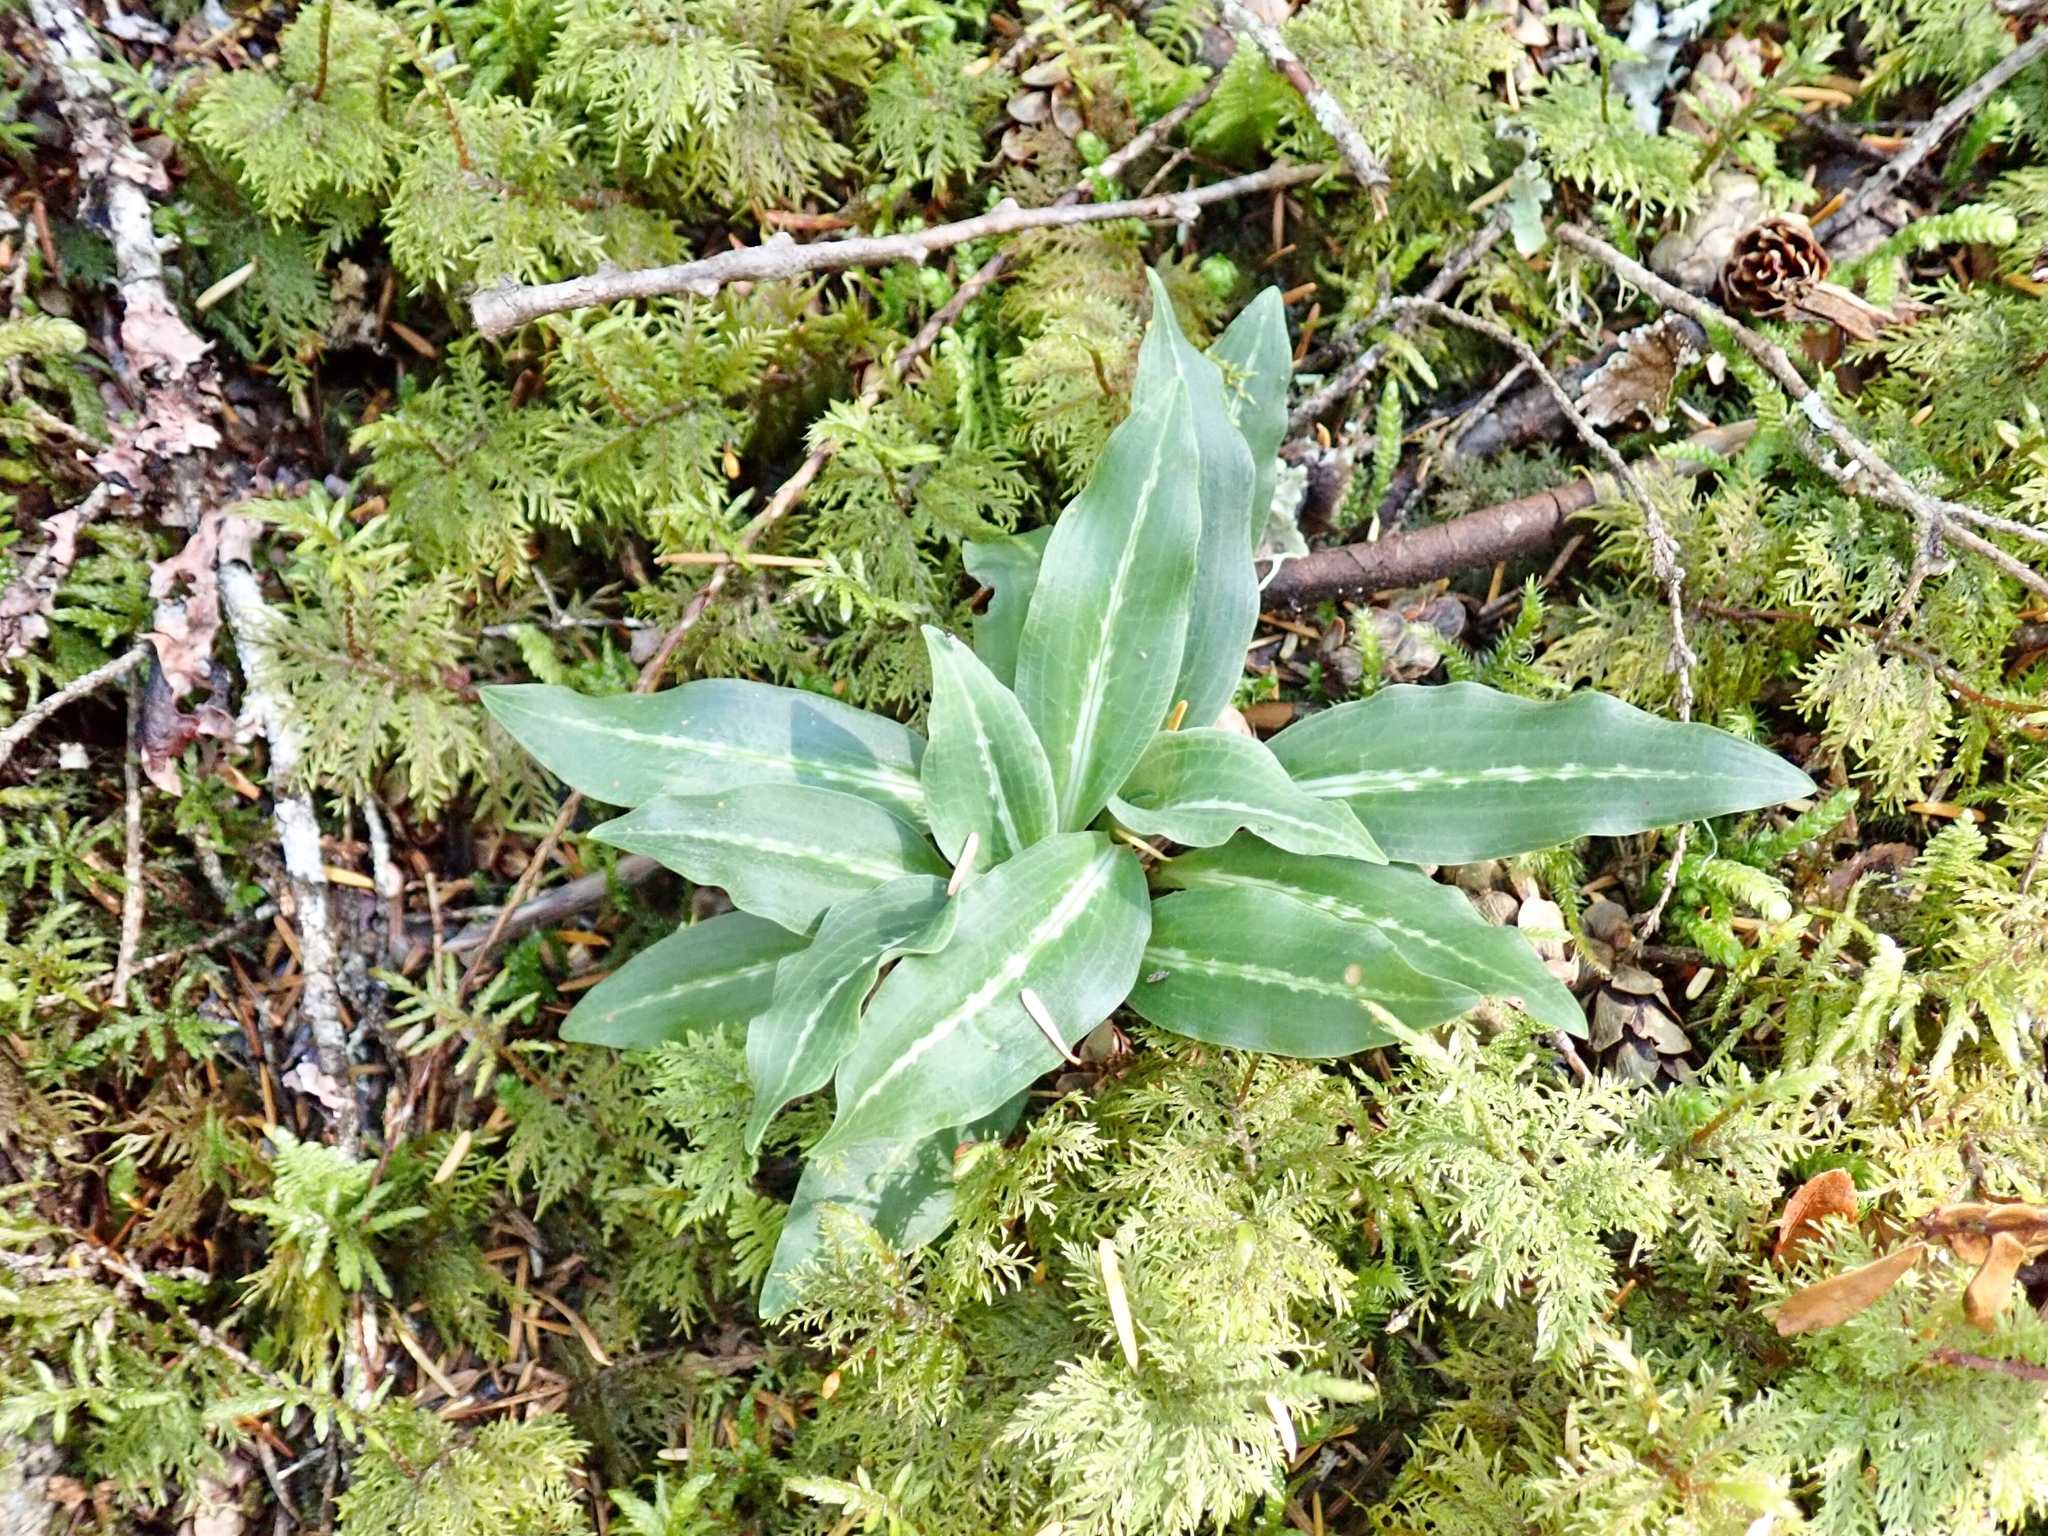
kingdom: Plantae
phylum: Tracheophyta
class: Liliopsida
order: Asparagales
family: Orchidaceae
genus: Goodyera
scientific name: Goodyera oblongifolia
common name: Giant rattlesnake-plantain
